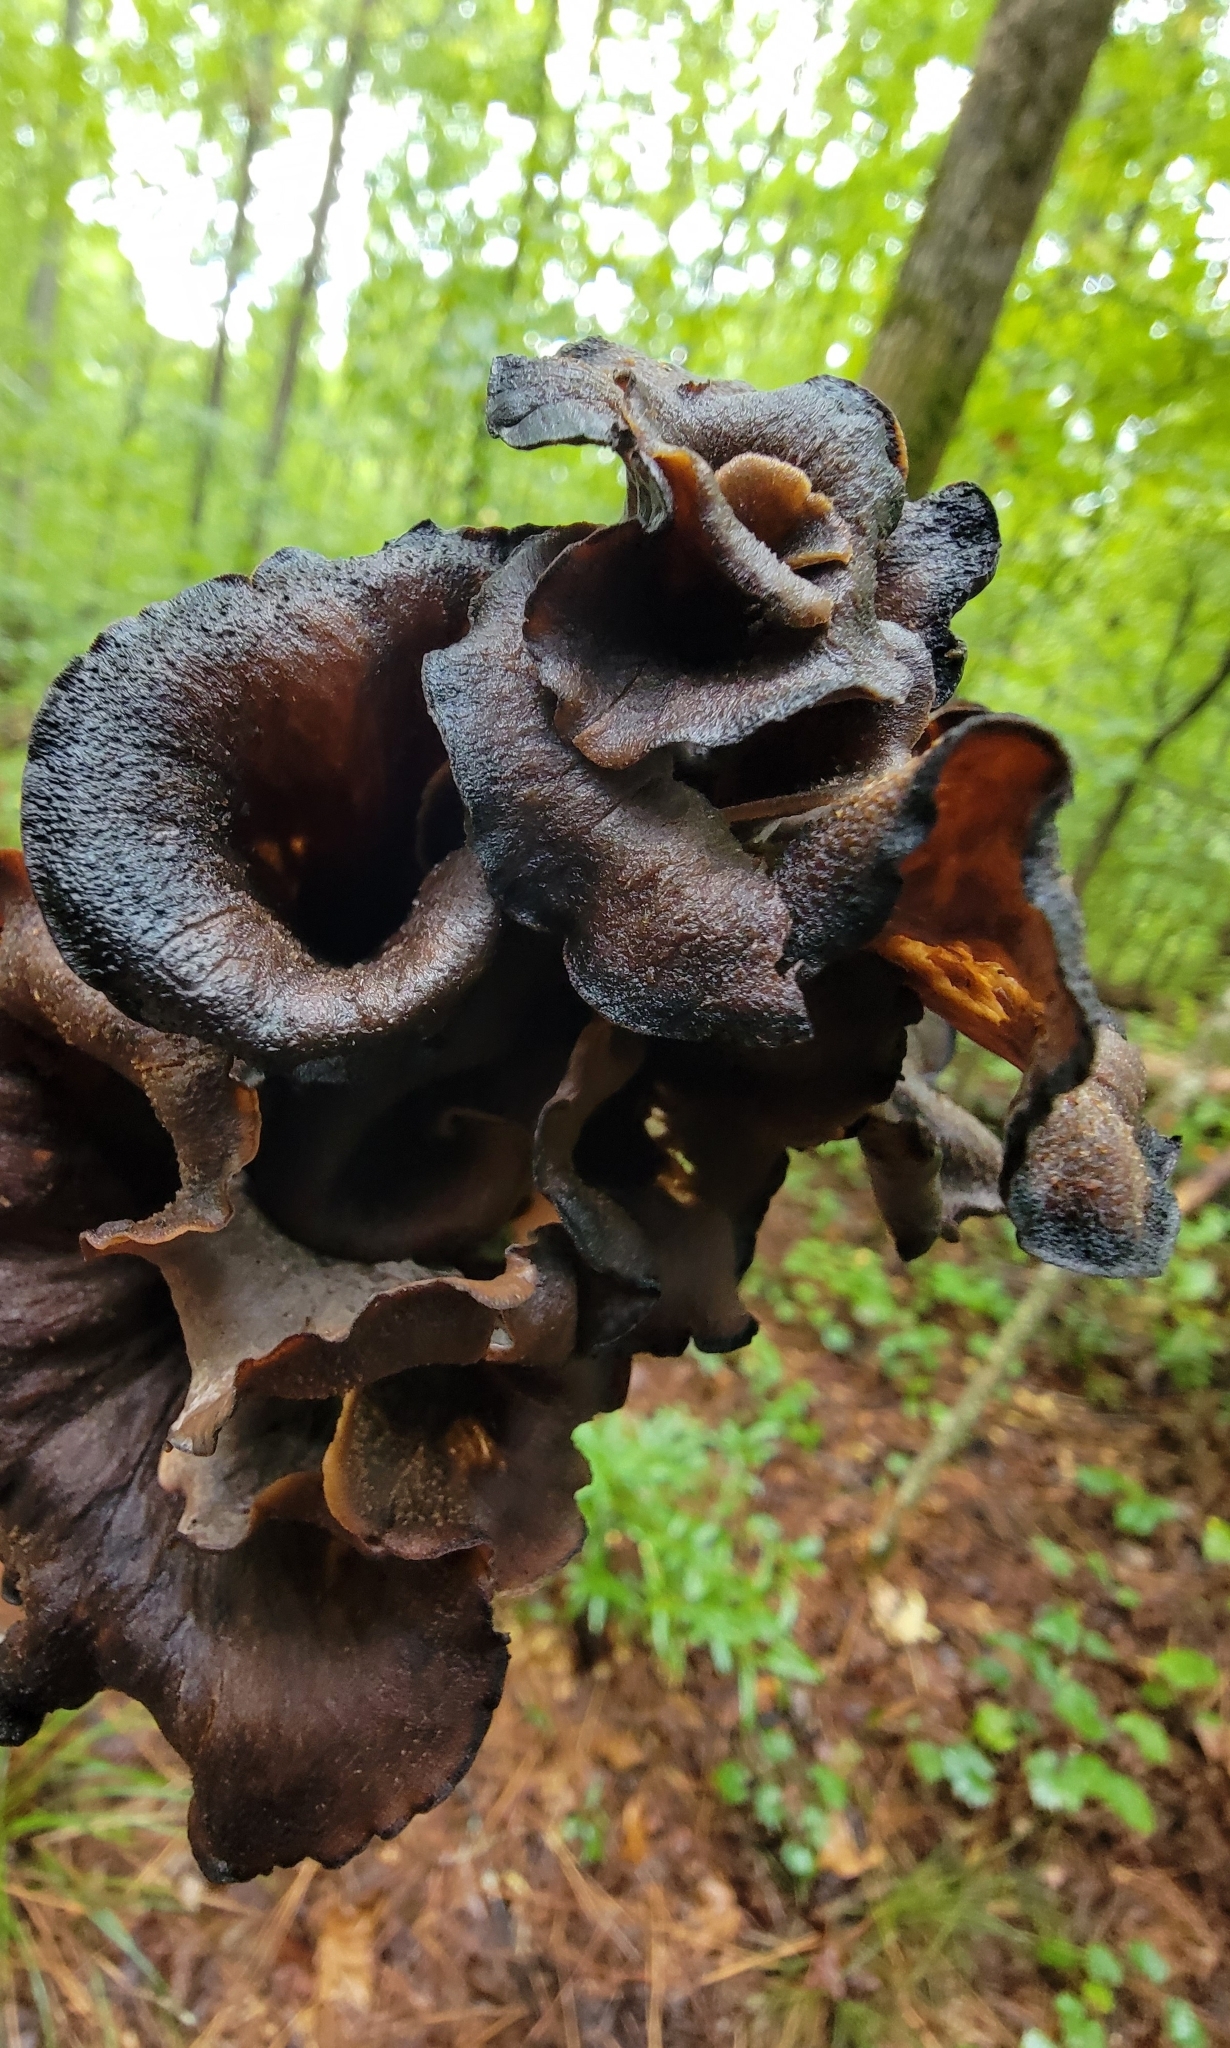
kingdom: Fungi
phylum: Basidiomycota
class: Agaricomycetes
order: Cantharellales
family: Hydnaceae
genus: Craterellus
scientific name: Craterellus cornucopioides
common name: Horn of plenty
